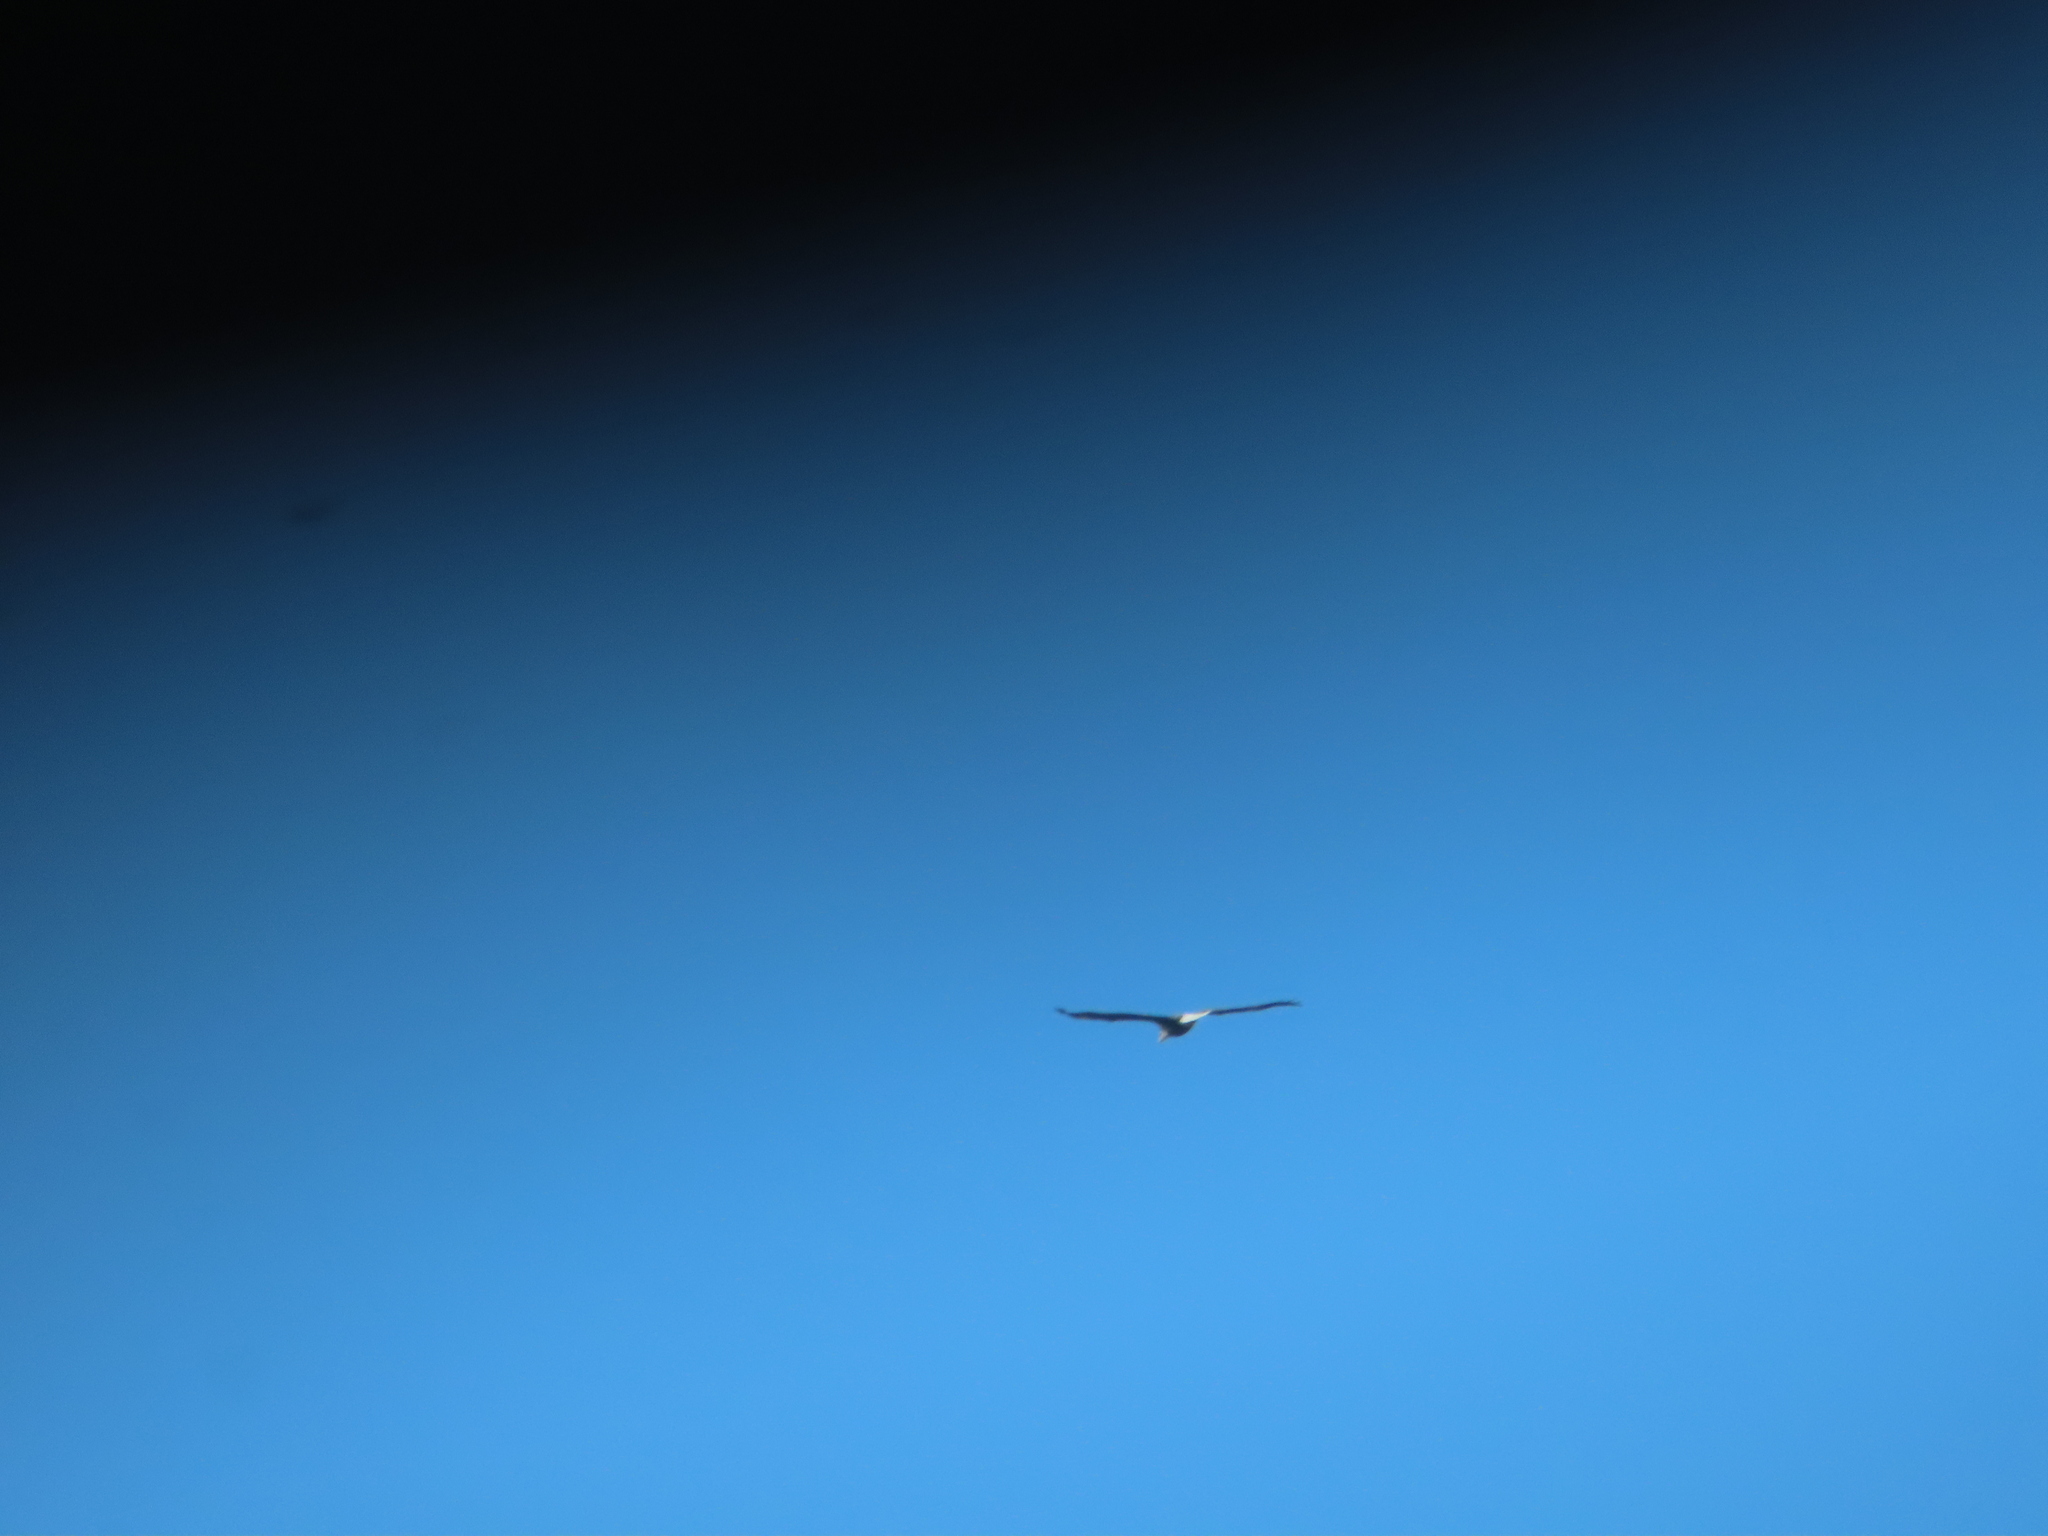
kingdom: Animalia
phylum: Chordata
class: Aves
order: Accipitriformes
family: Accipitridae
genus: Haliaeetus
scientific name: Haliaeetus leucocephalus
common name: Bald eagle
